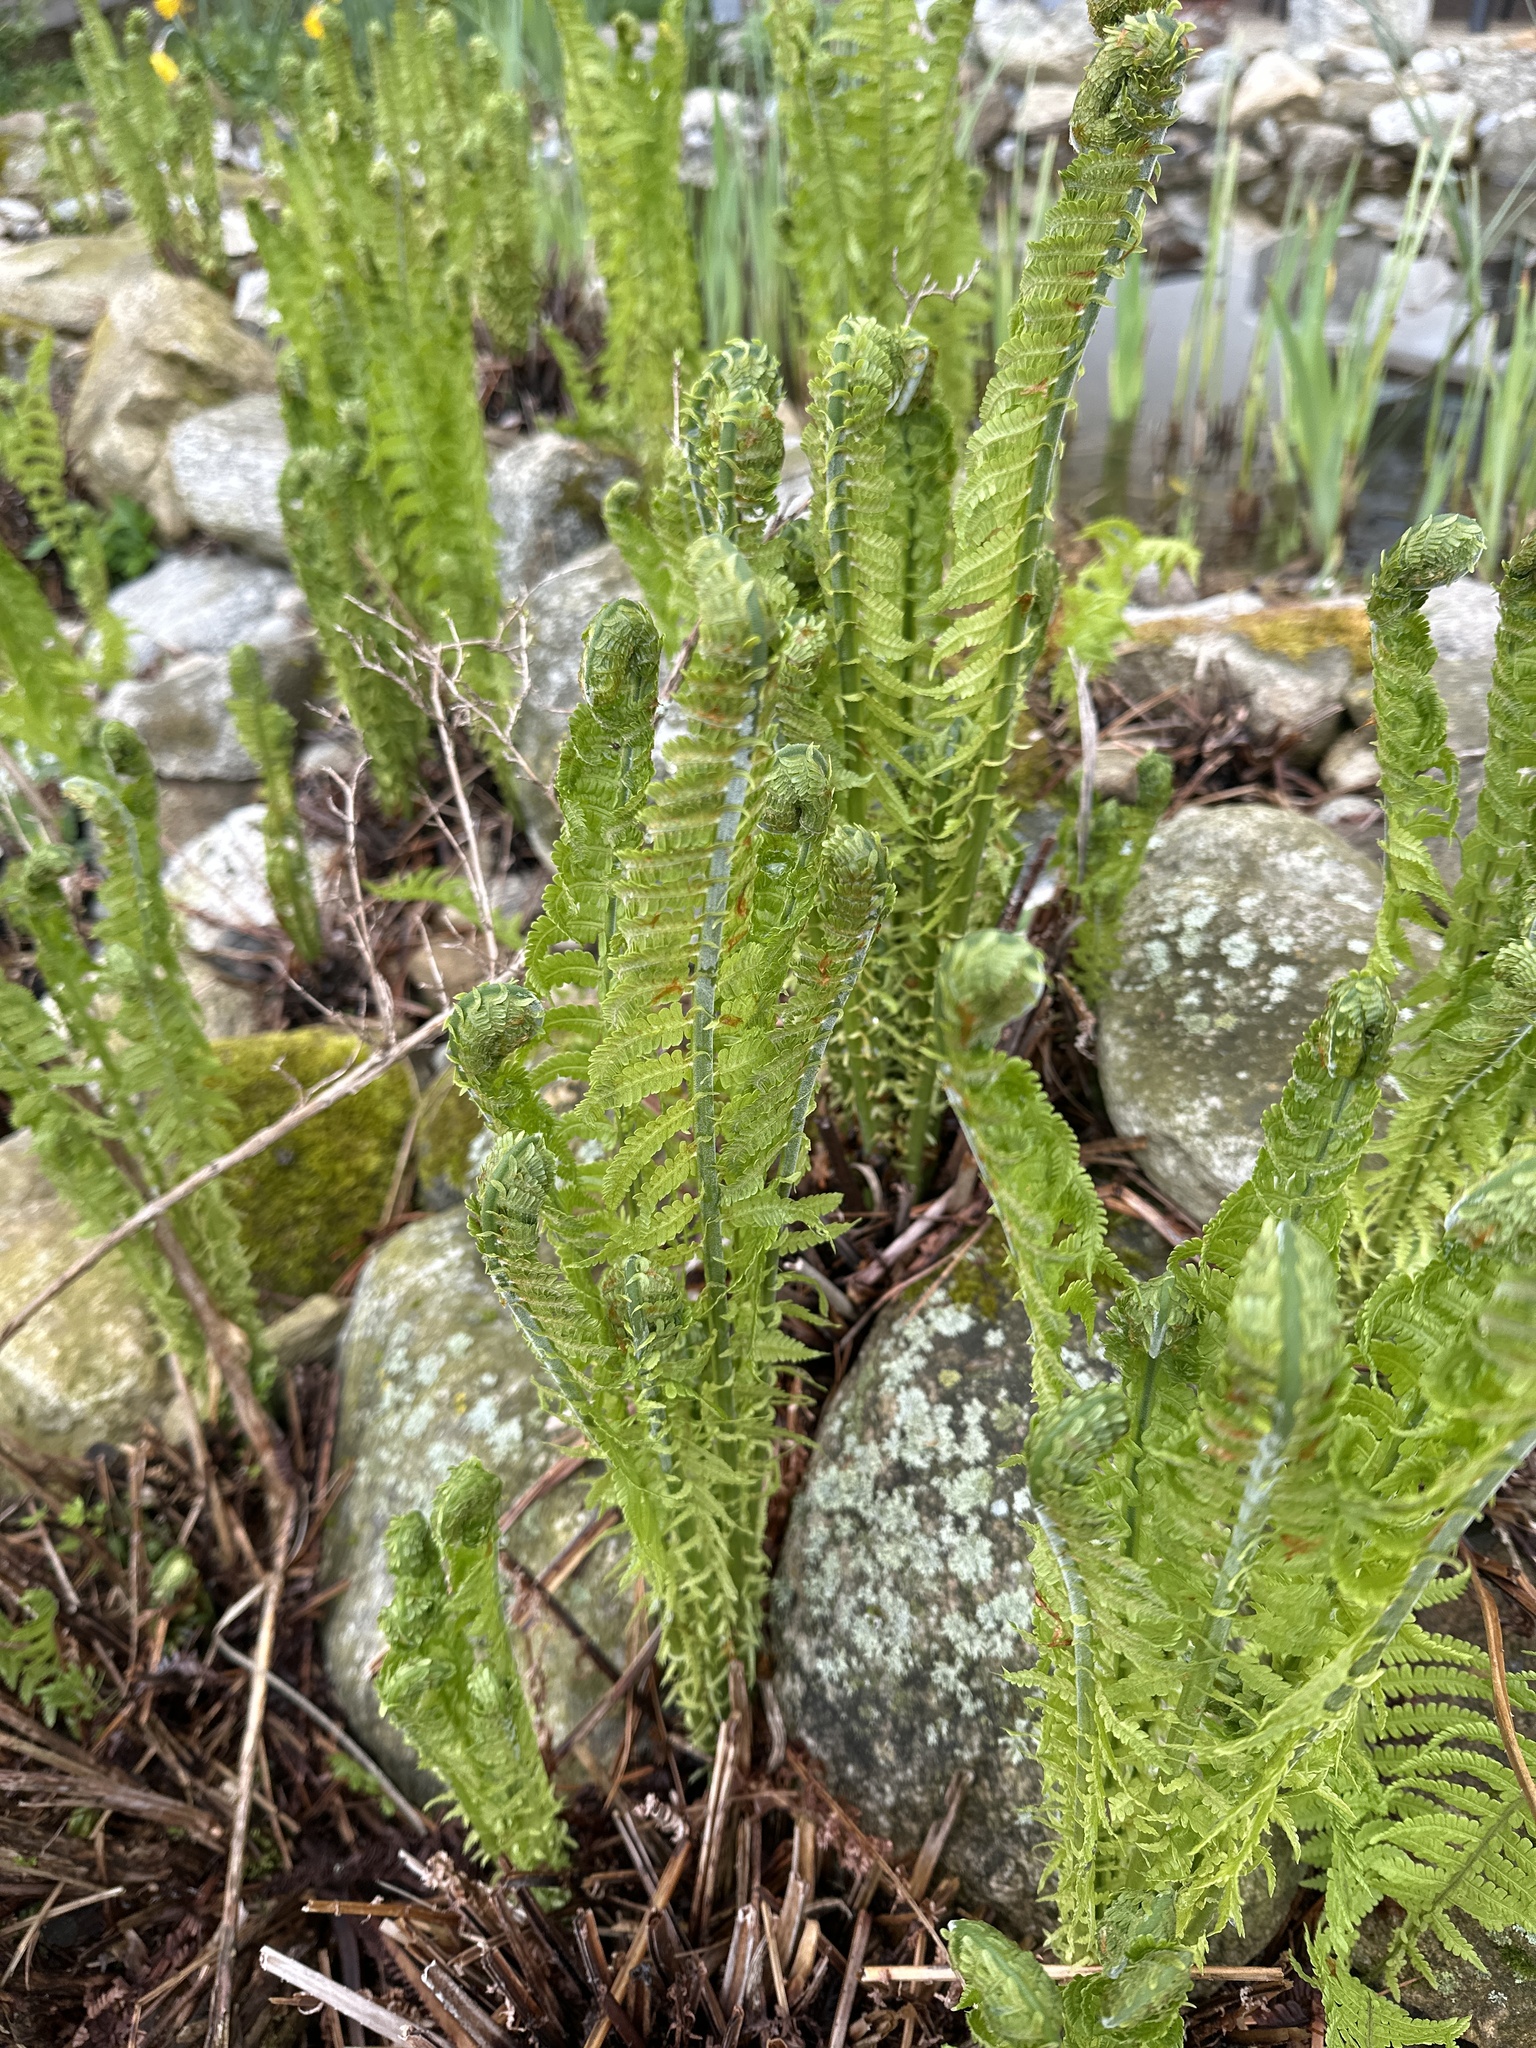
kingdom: Plantae
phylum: Tracheophyta
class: Polypodiopsida
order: Polypodiales
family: Onocleaceae
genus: Matteuccia
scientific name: Matteuccia struthiopteris
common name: Ostrich fern
